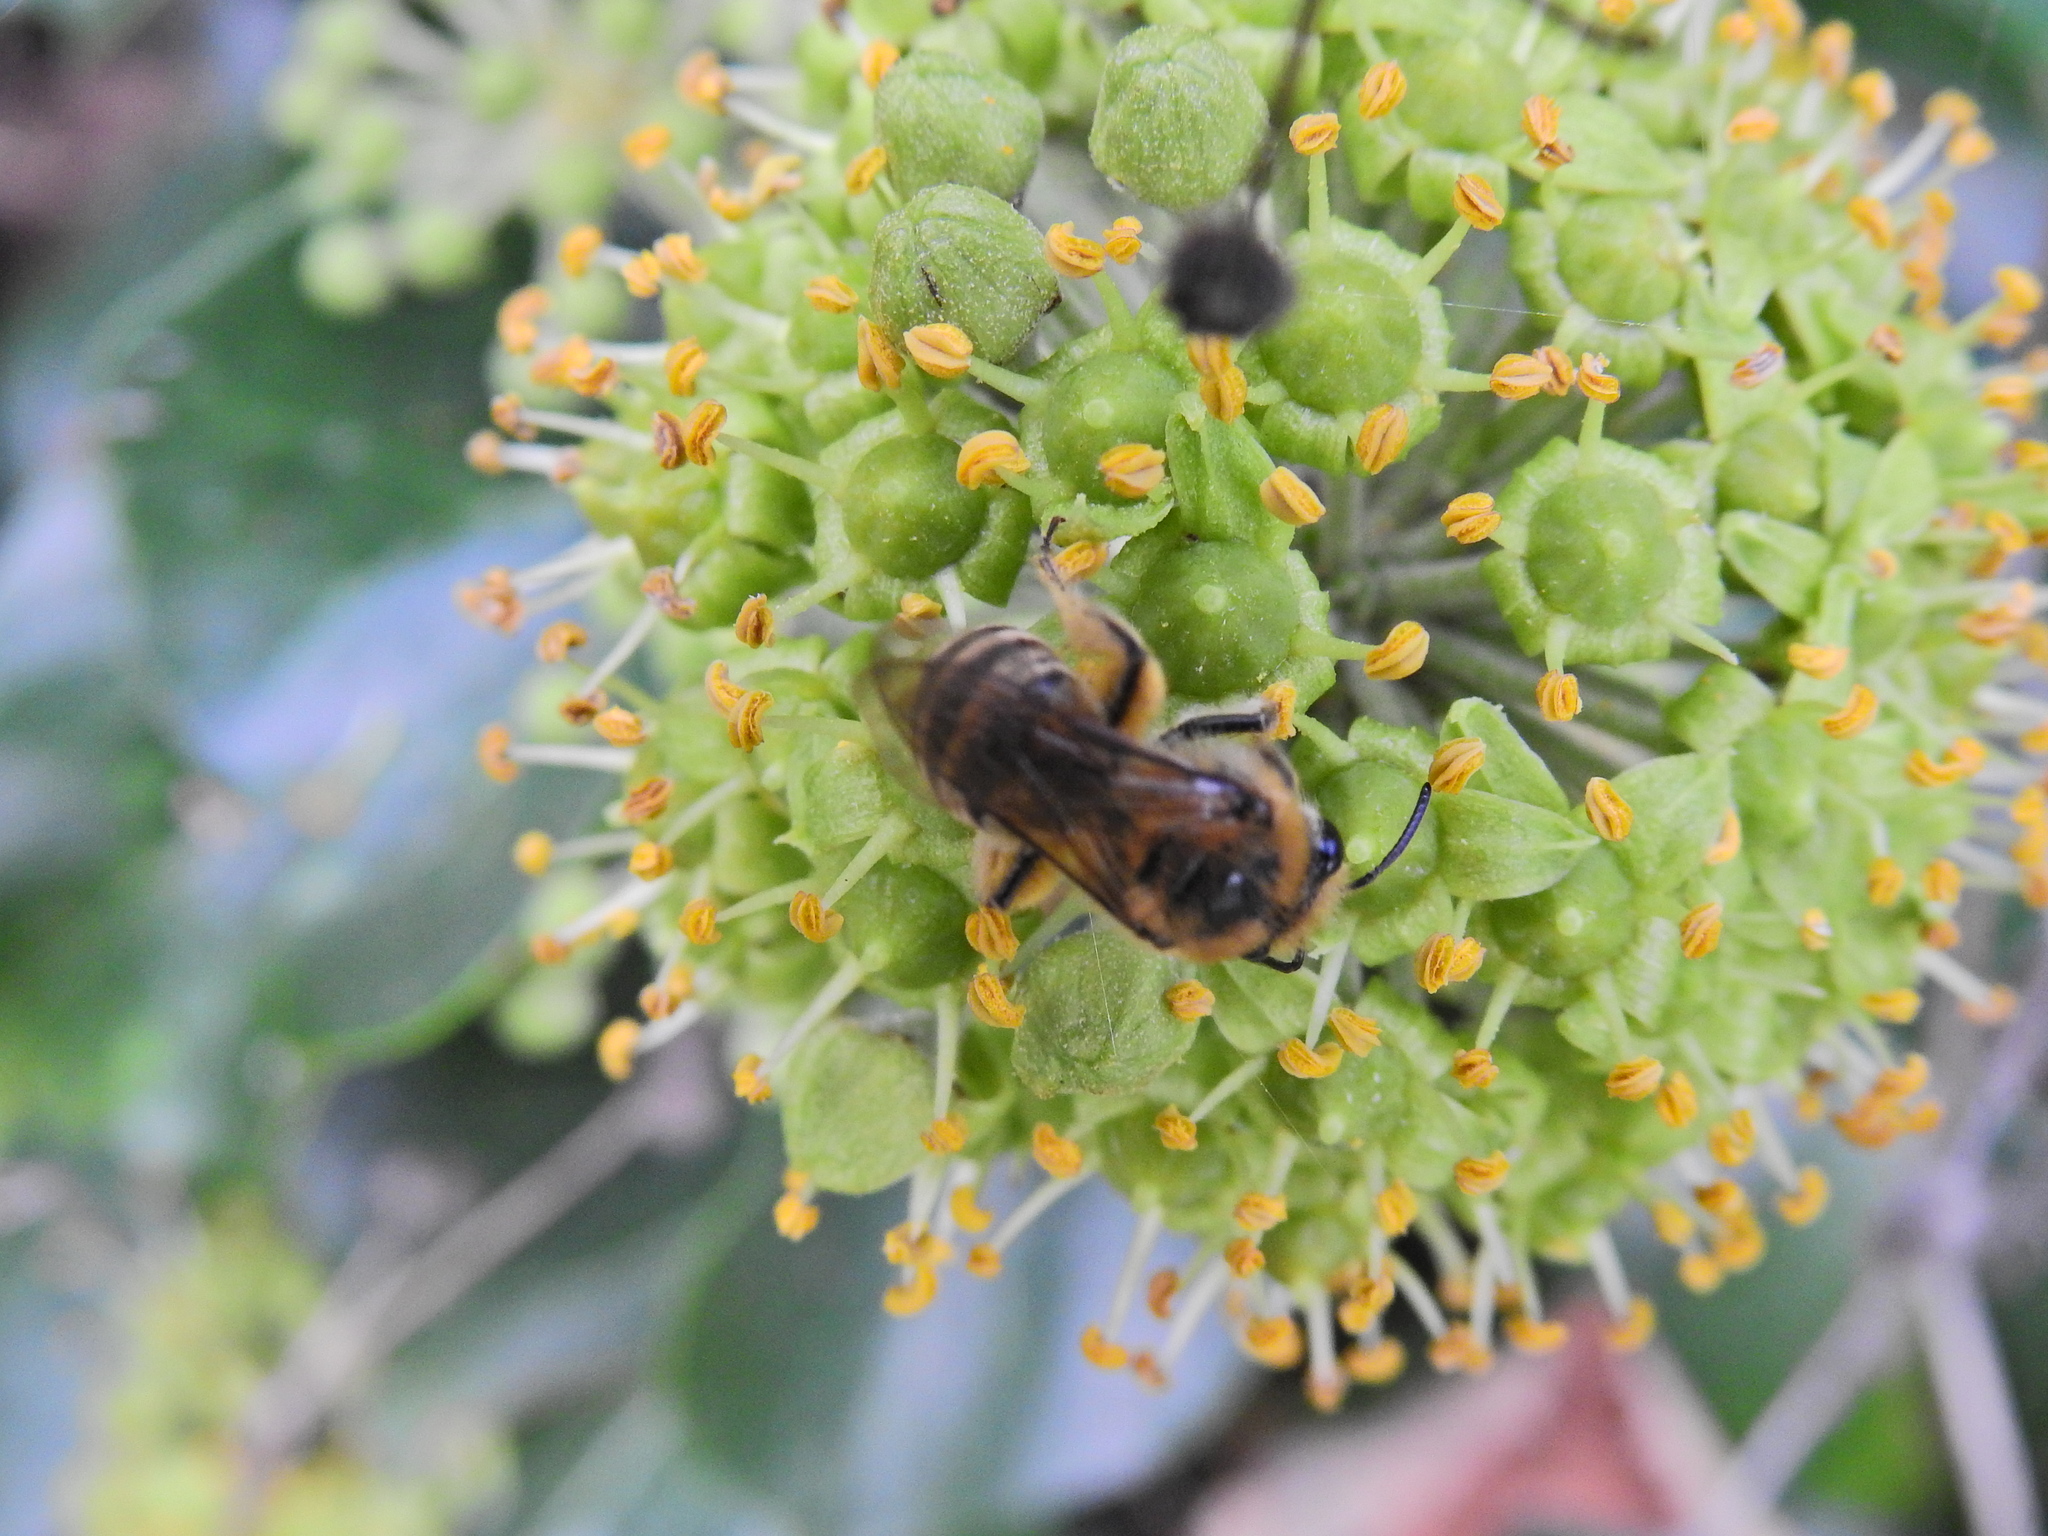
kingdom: Animalia
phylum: Arthropoda
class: Insecta
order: Hymenoptera
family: Colletidae
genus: Colletes
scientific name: Colletes hederae
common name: Ivy bee
